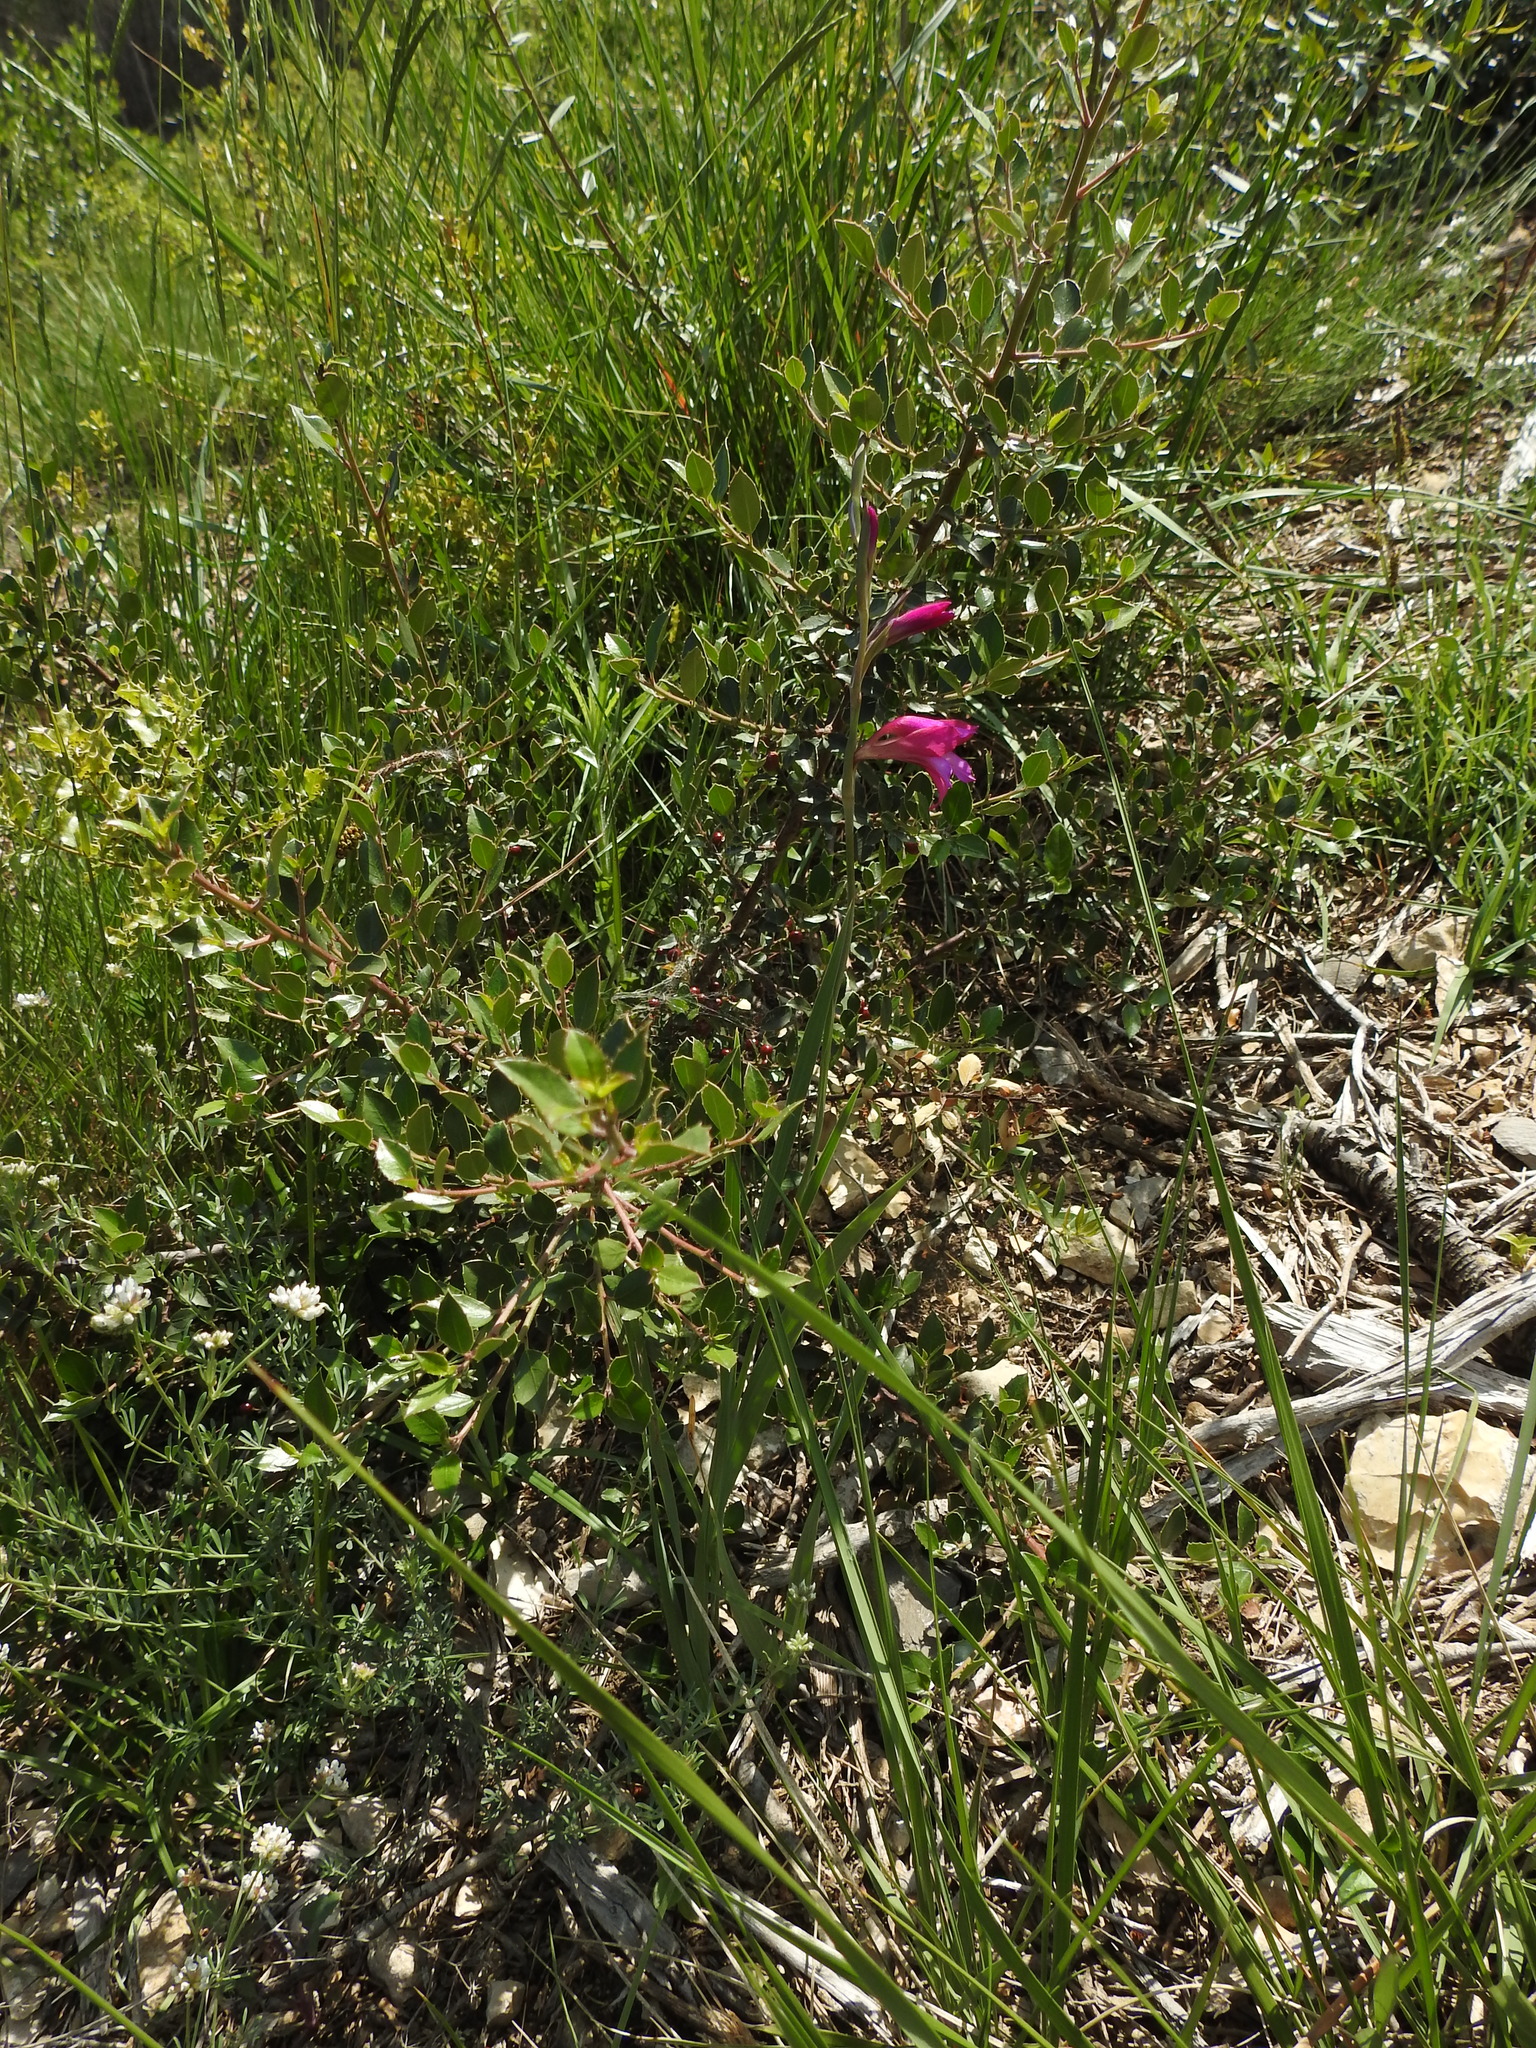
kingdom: Plantae
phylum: Tracheophyta
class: Liliopsida
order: Asparagales
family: Iridaceae
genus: Gladiolus
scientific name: Gladiolus dubius
